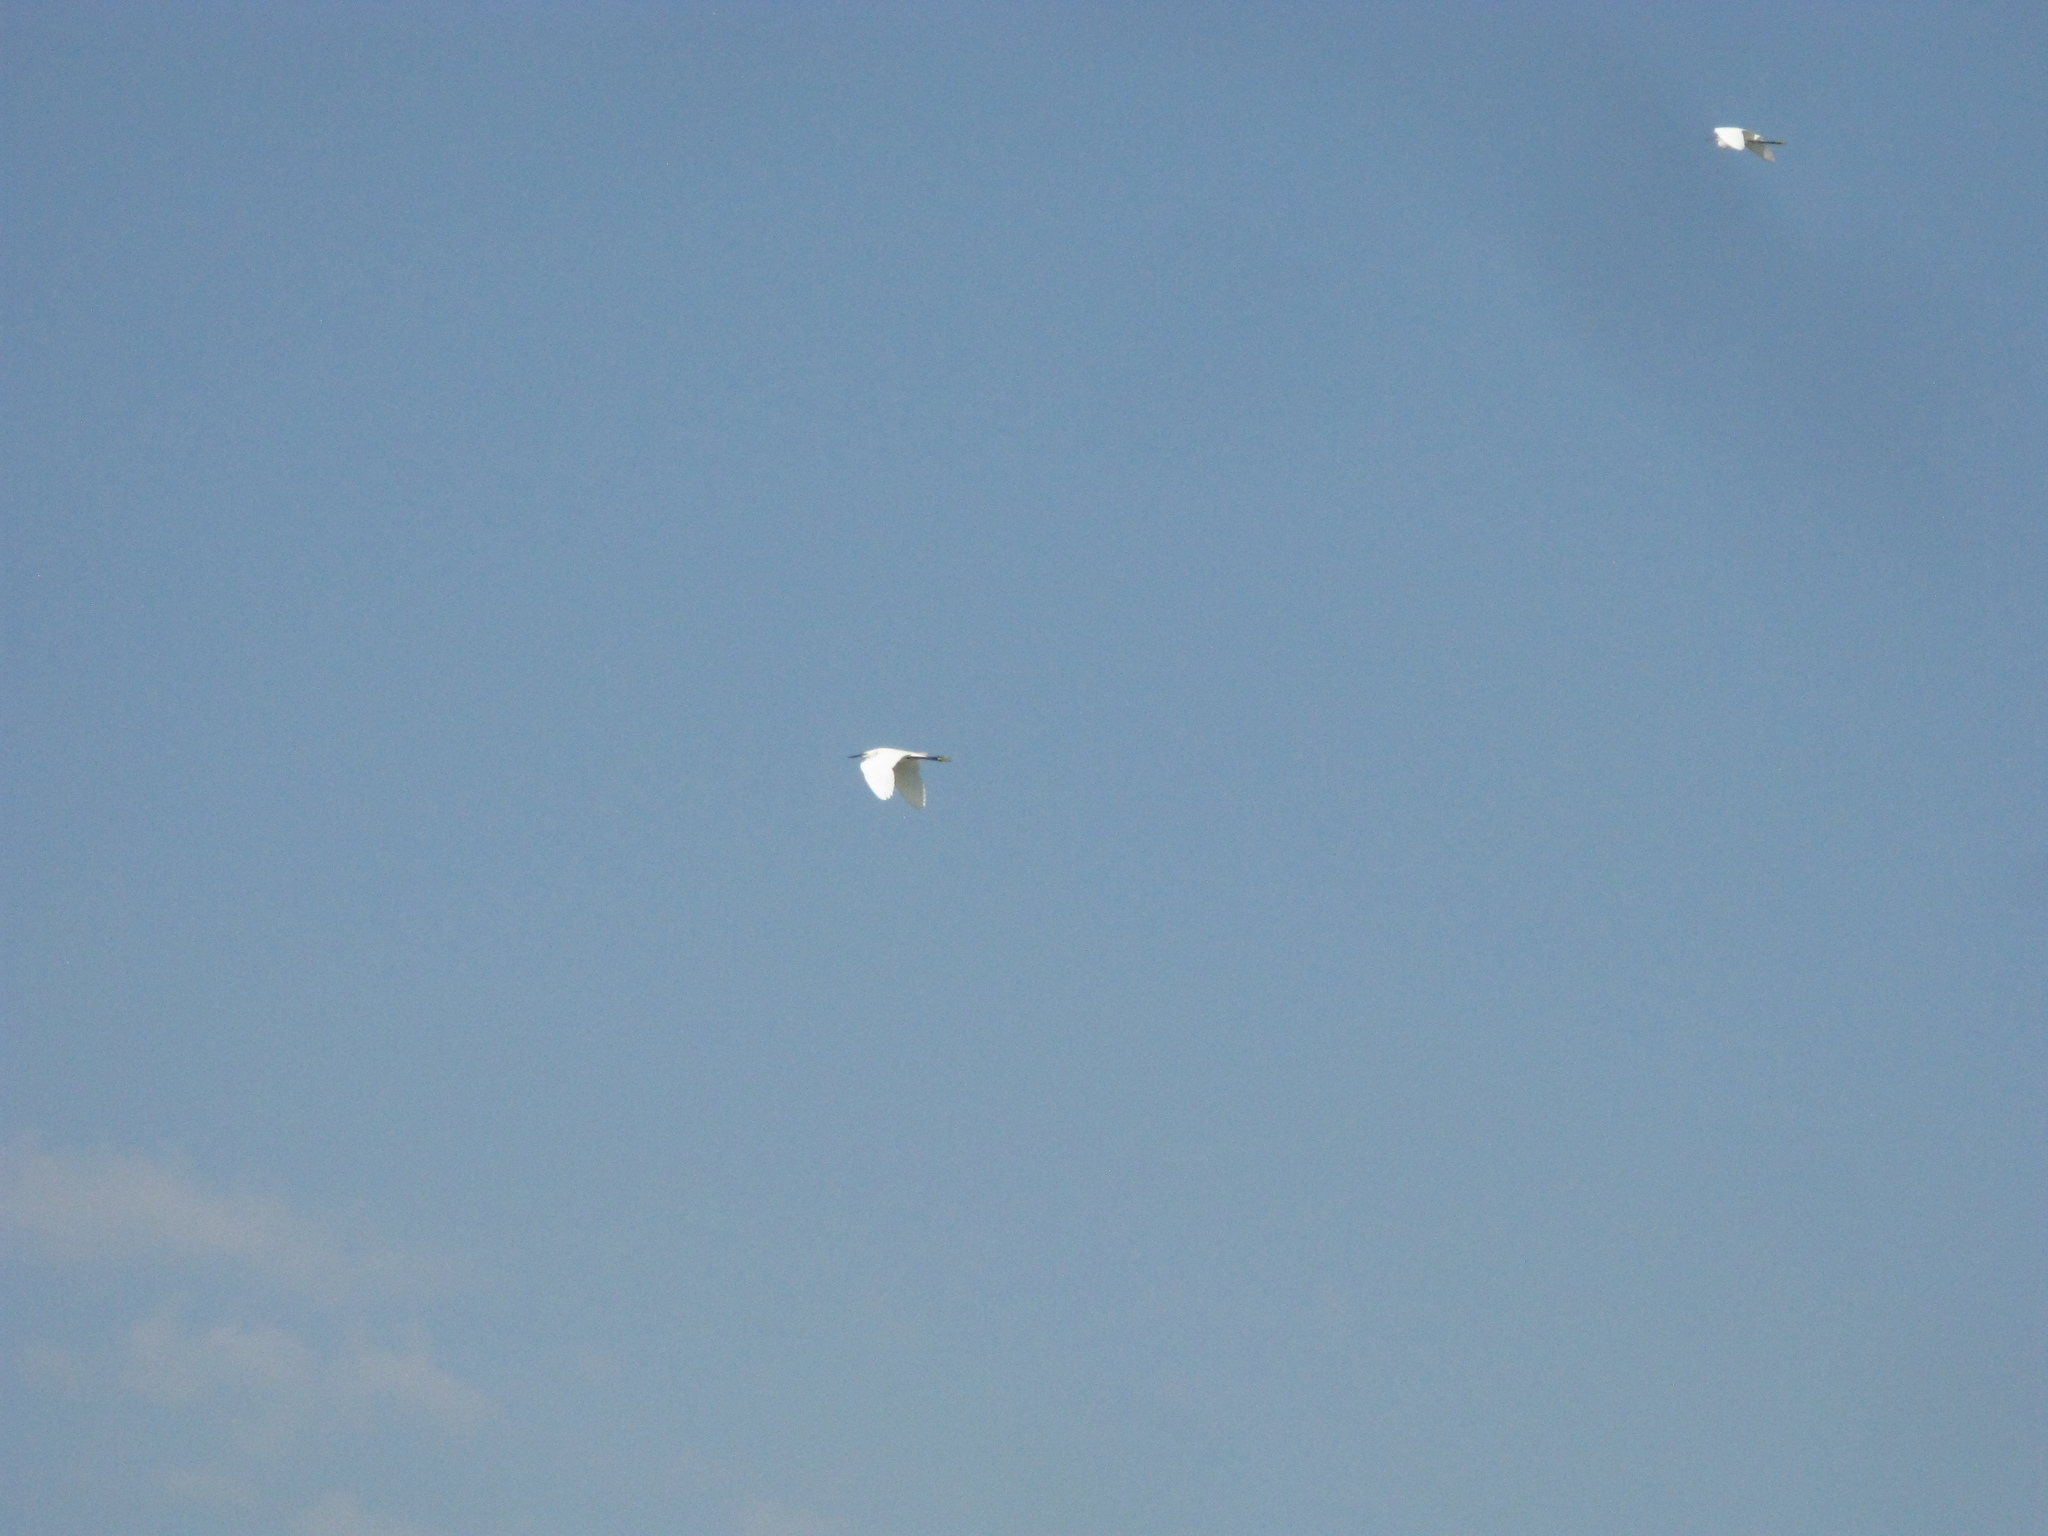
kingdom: Animalia
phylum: Chordata
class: Aves
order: Pelecaniformes
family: Ardeidae
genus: Egretta
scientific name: Egretta garzetta
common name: Little egret
